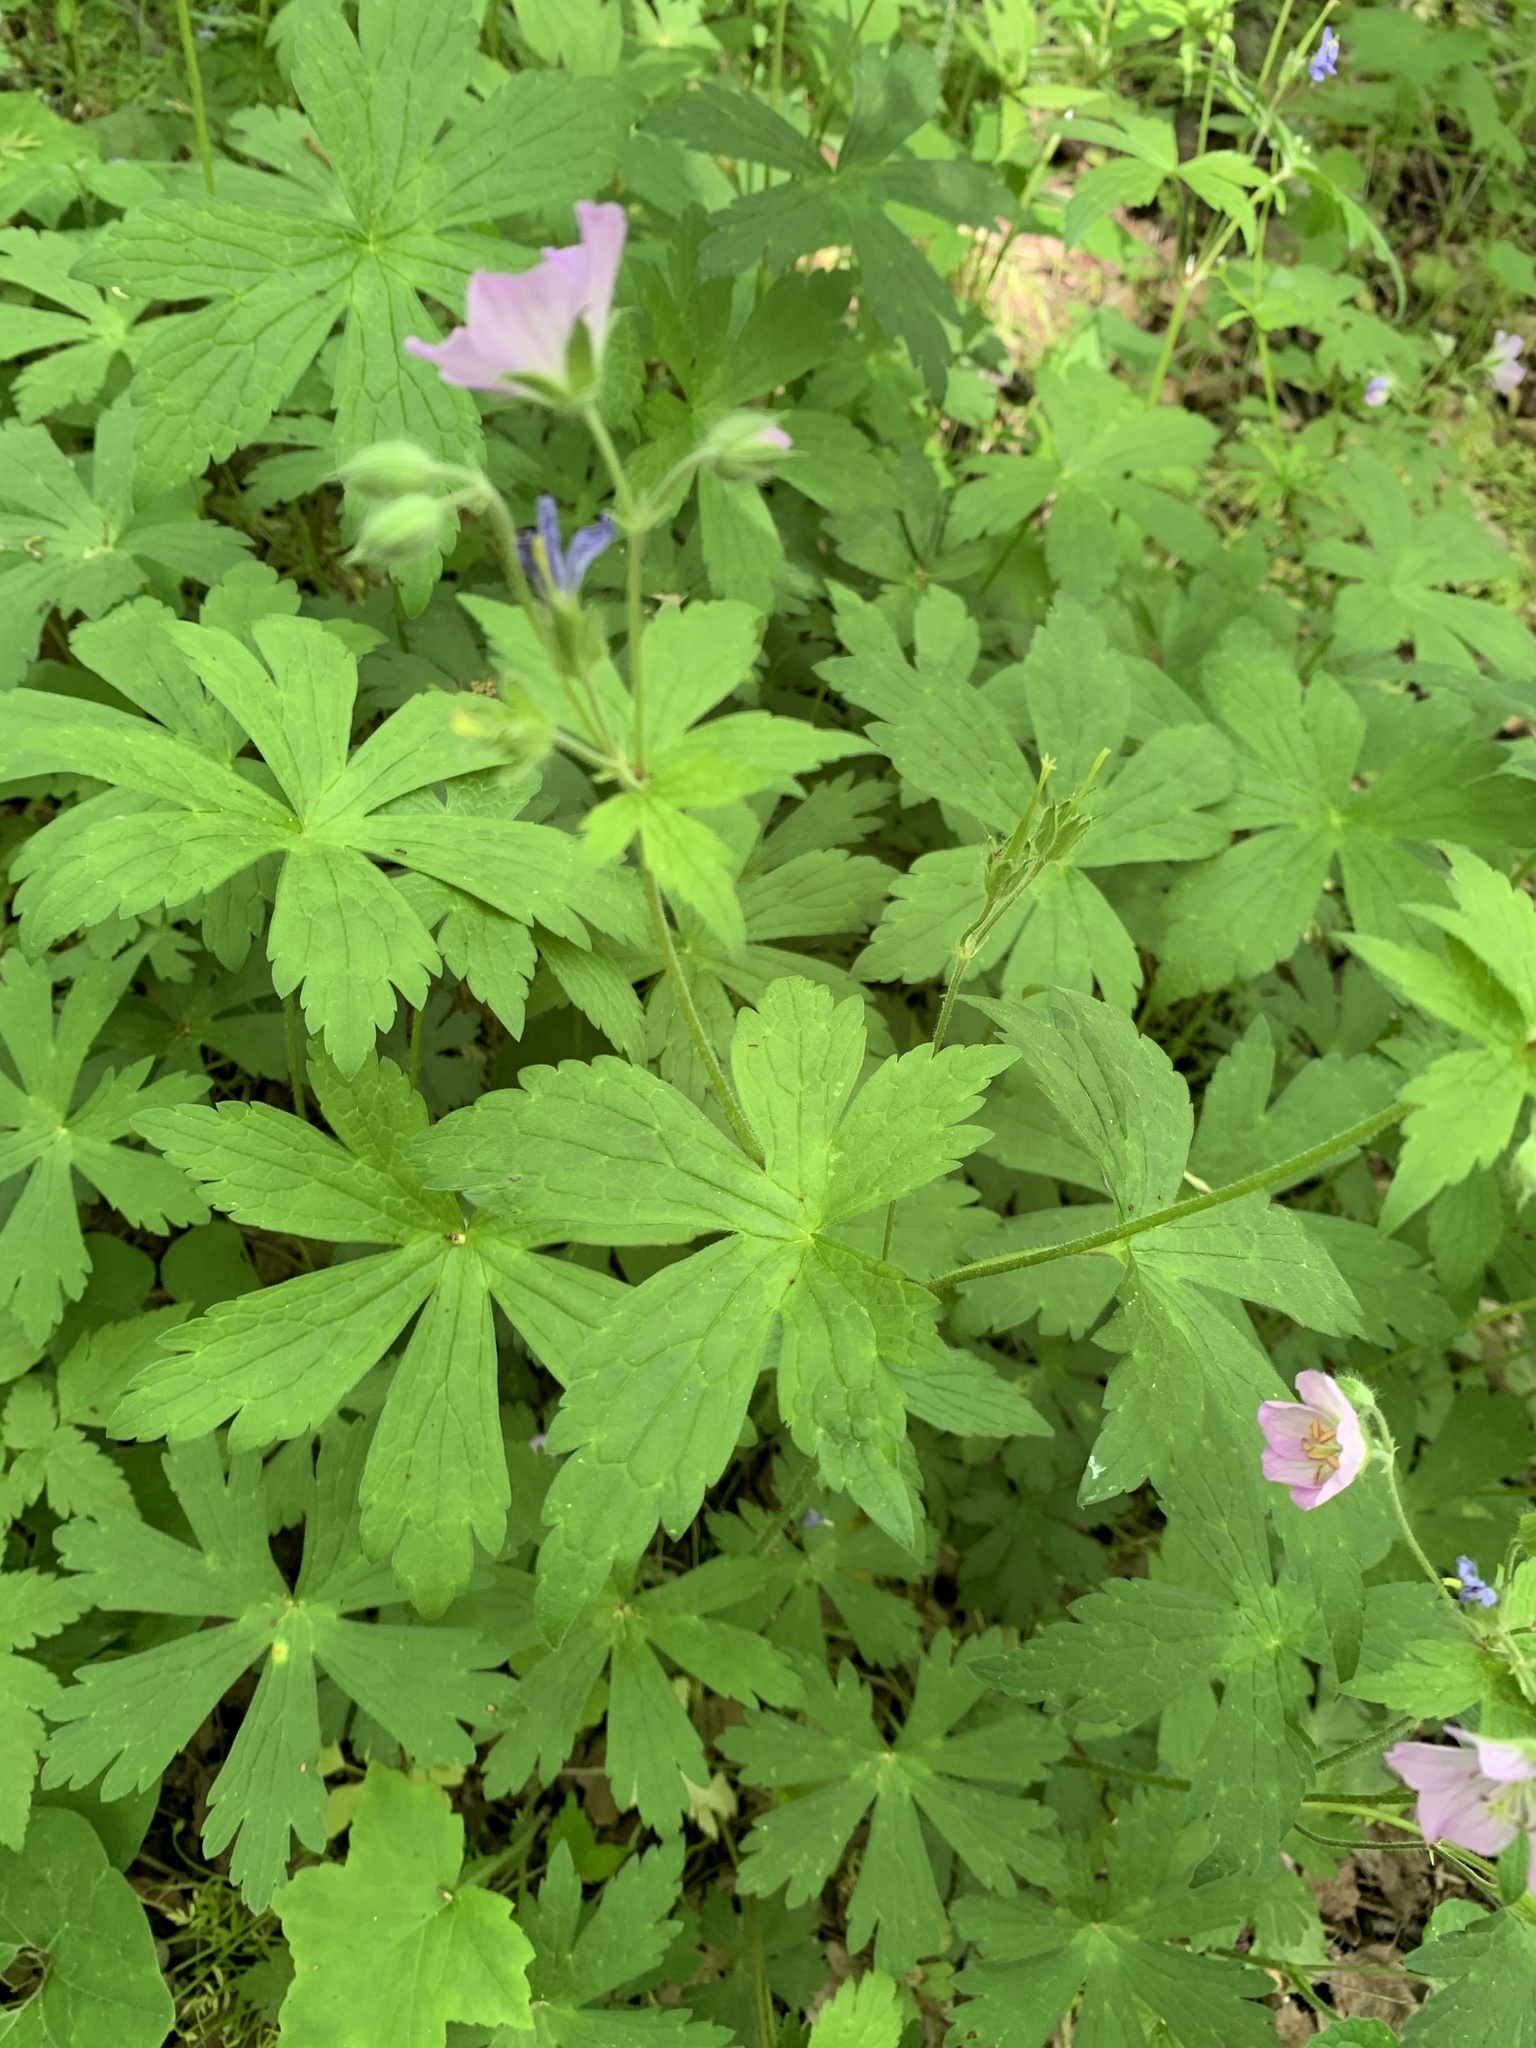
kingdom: Plantae
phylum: Tracheophyta
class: Magnoliopsida
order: Geraniales
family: Geraniaceae
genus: Geranium
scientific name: Geranium maculatum
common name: Spotted geranium
